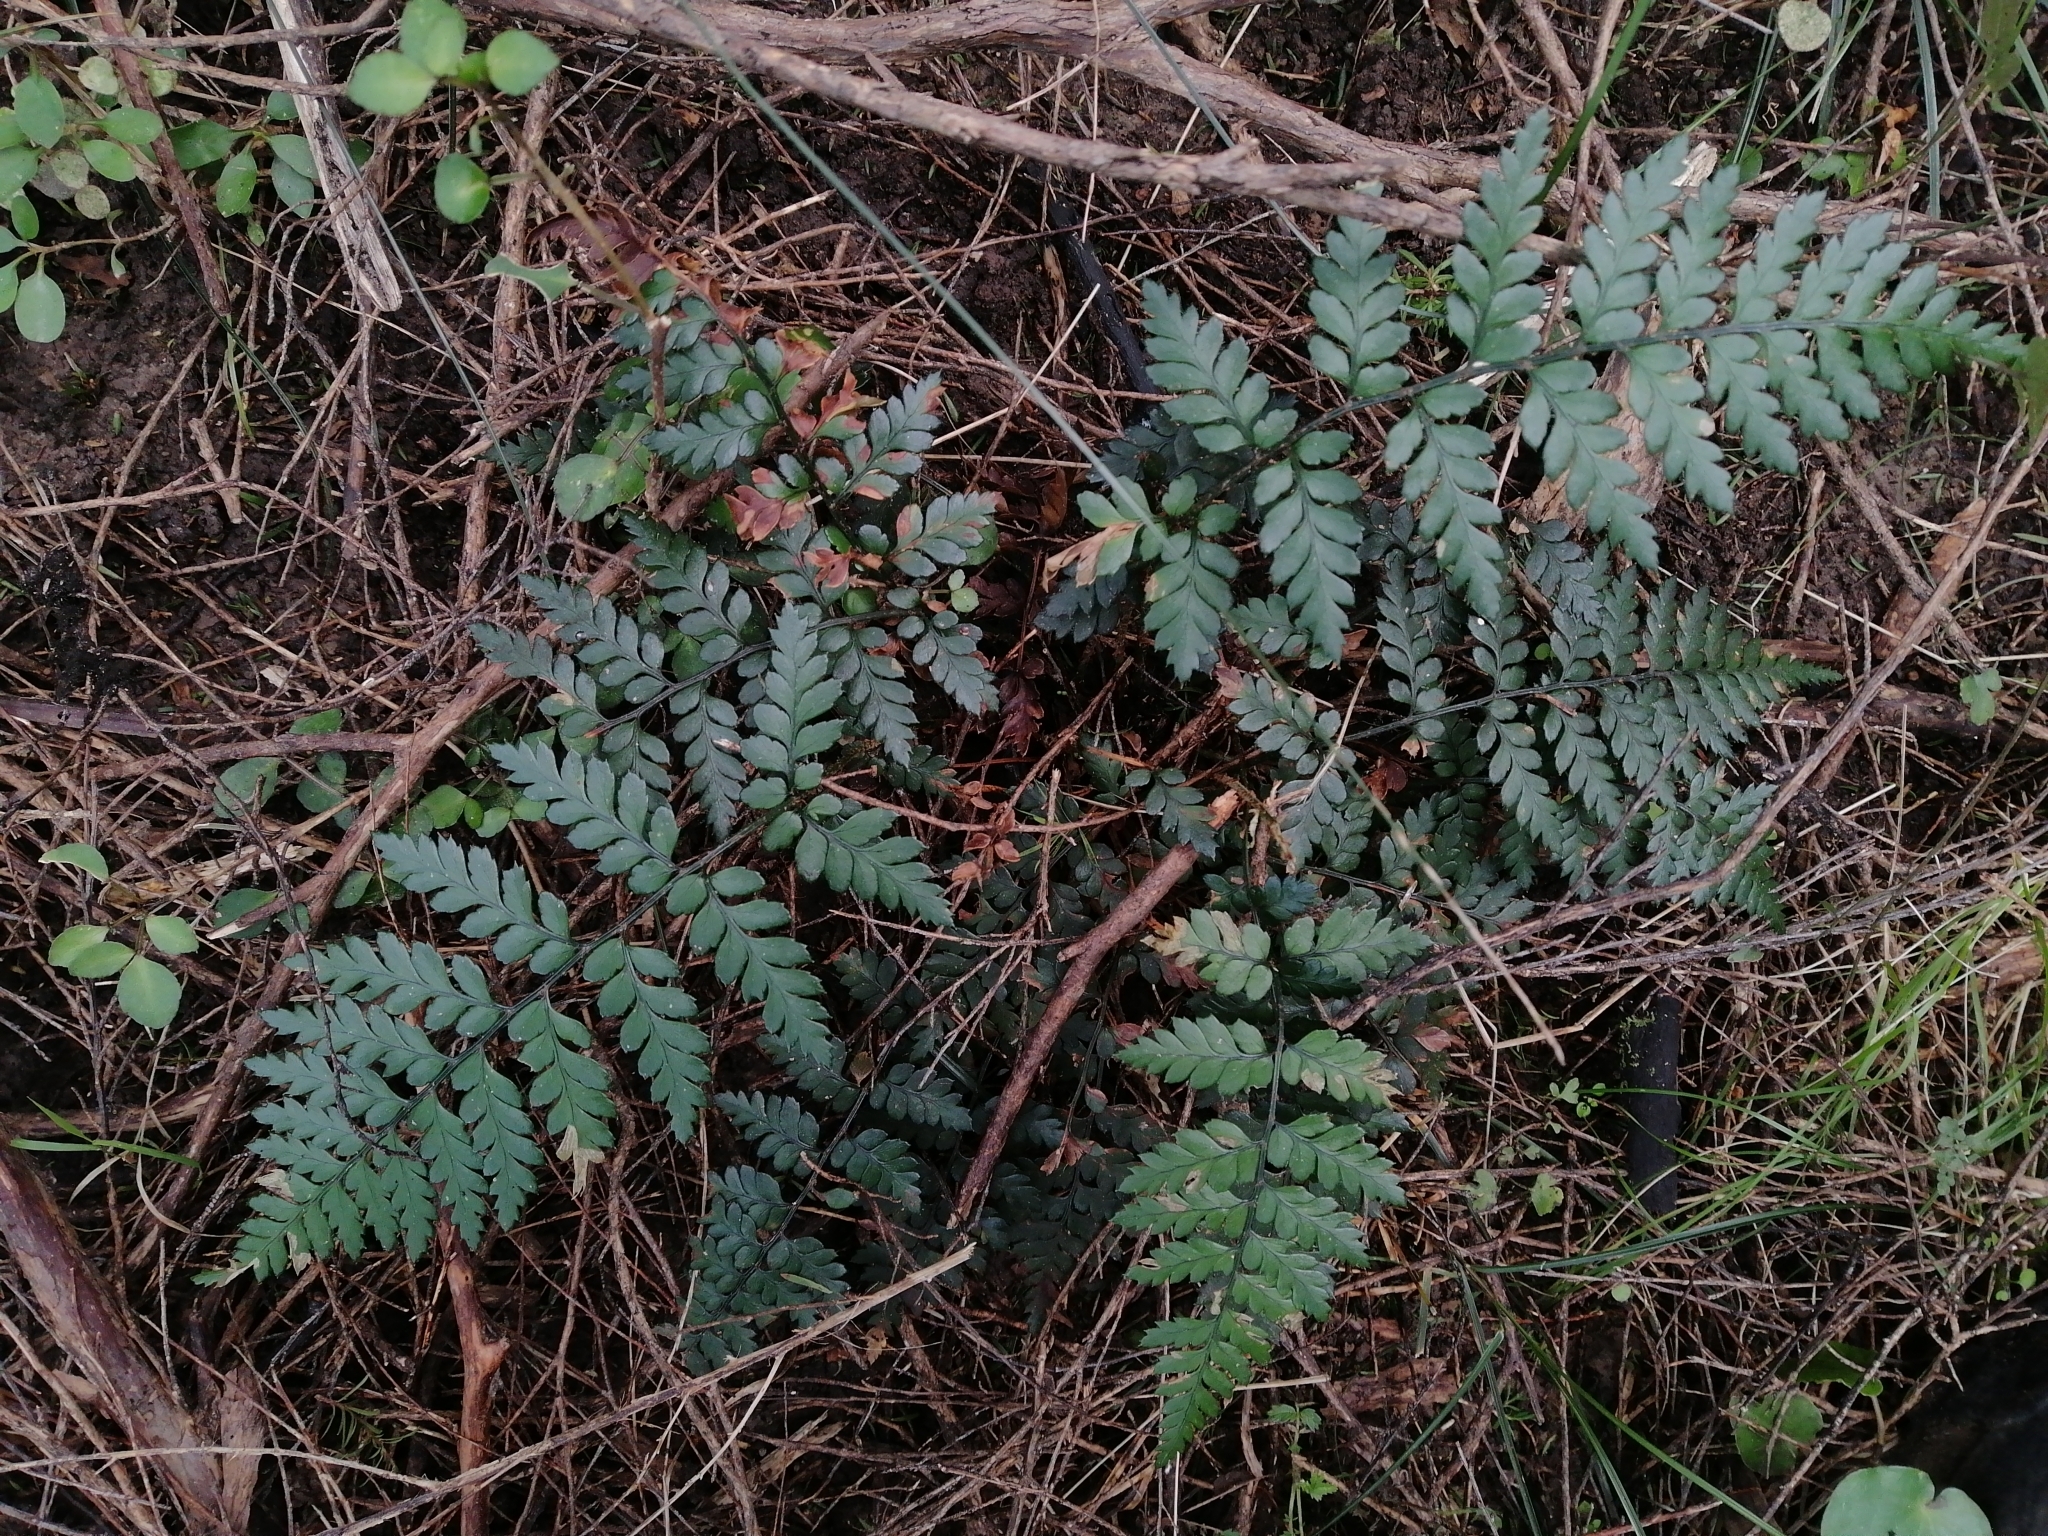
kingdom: Plantae
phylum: Tracheophyta
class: Polypodiopsida
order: Polypodiales
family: Dryopteridaceae
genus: Polystichum
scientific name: Polystichum oculatum
